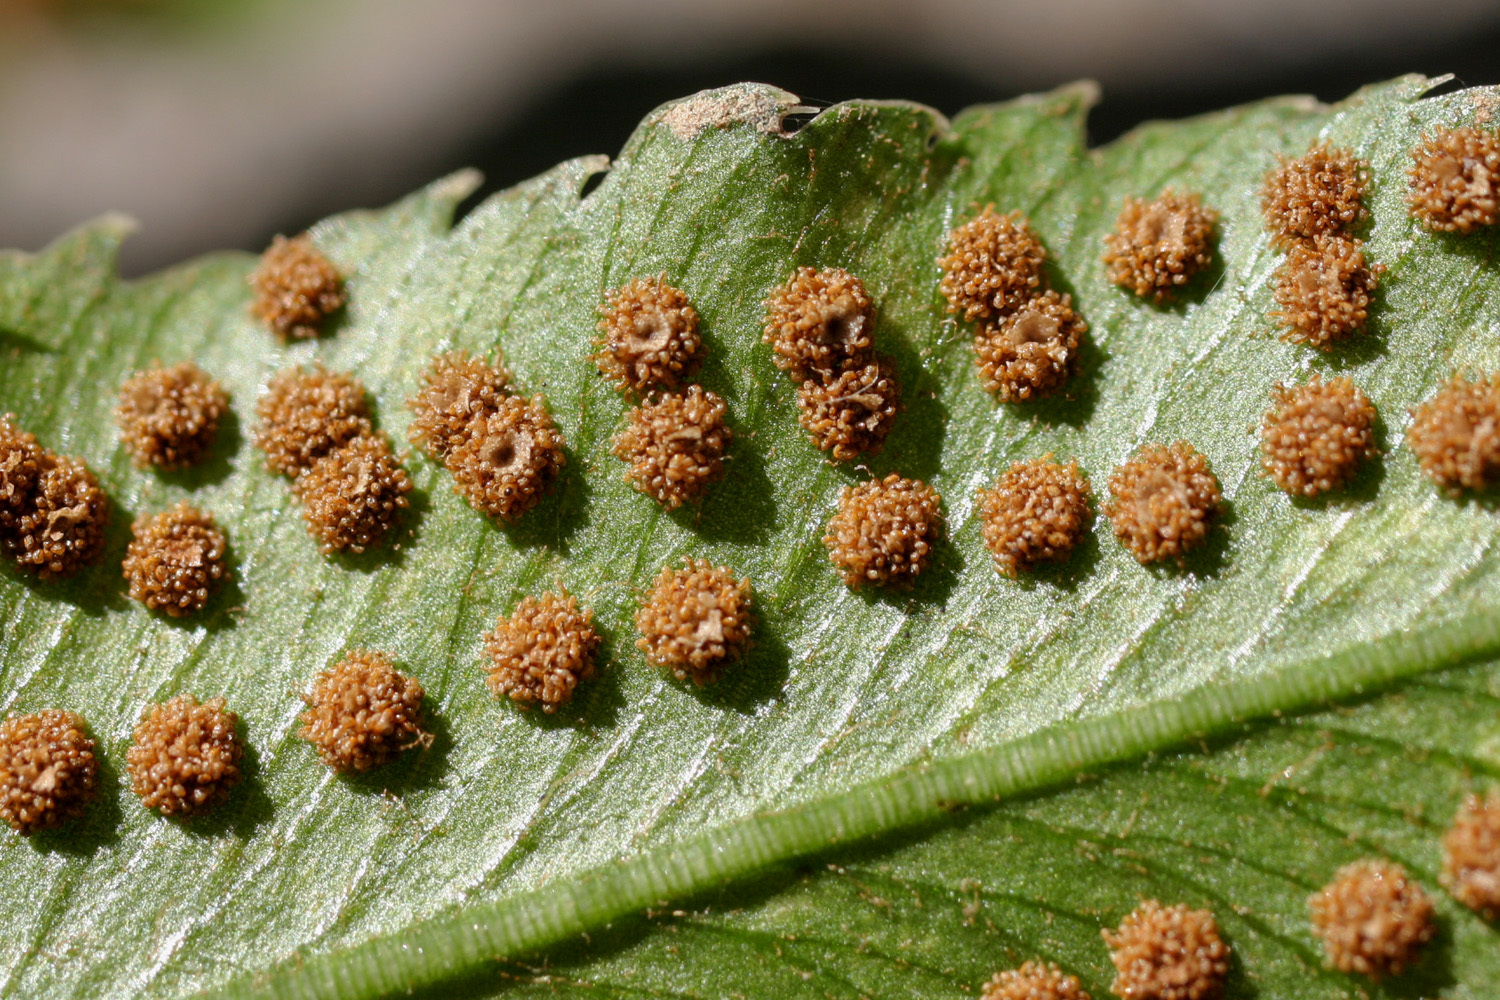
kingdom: Plantae
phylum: Tracheophyta
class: Polypodiopsida
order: Polypodiales
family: Dryopteridaceae
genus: Phanerophlebia
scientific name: Phanerophlebia auriculata
